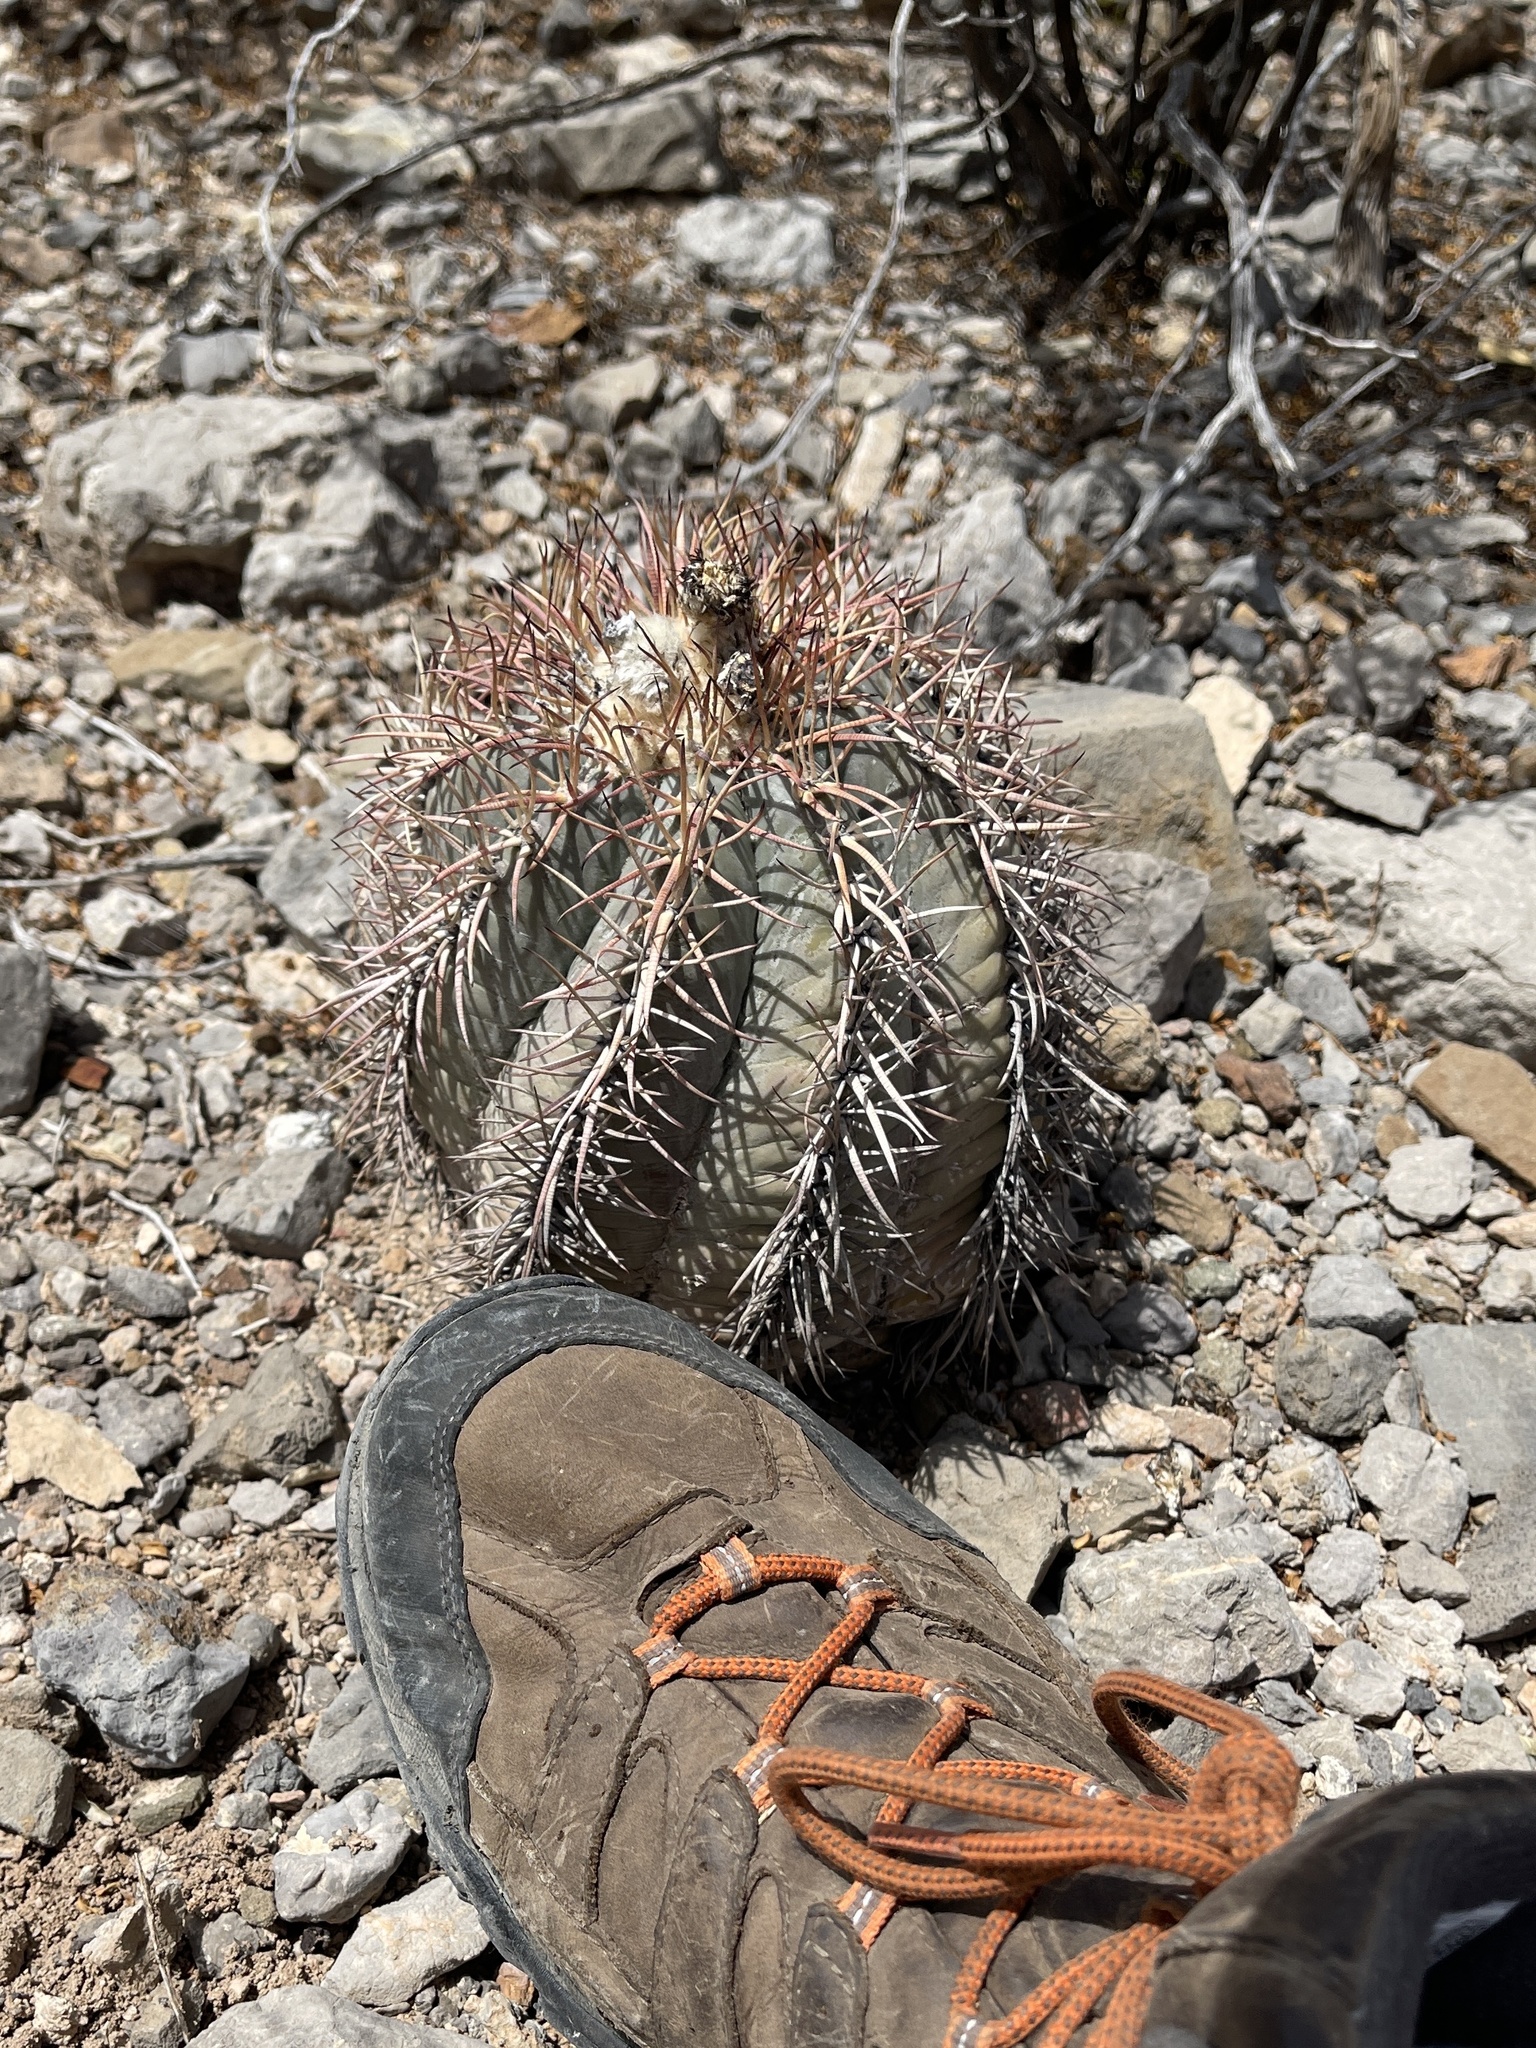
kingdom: Plantae
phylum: Tracheophyta
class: Magnoliopsida
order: Caryophyllales
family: Cactaceae
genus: Echinocactus
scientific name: Echinocactus horizonthalonius
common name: Devilshead
